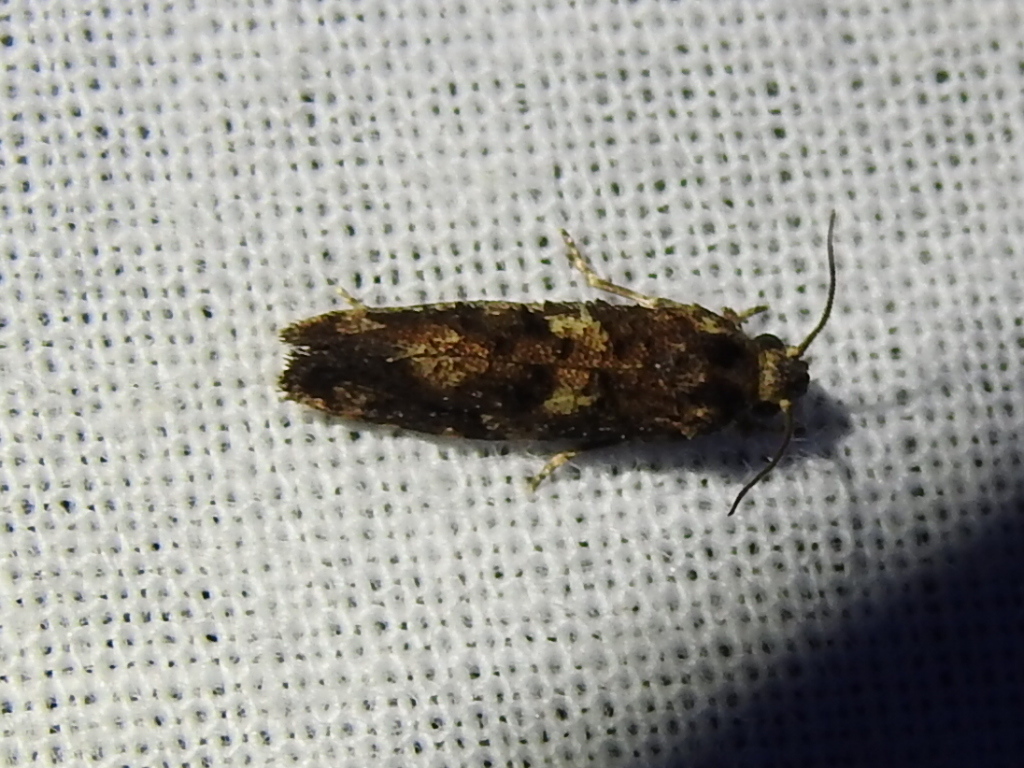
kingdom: Animalia
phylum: Arthropoda
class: Insecta
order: Lepidoptera
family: Tineidae
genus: Acrolophus
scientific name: Acrolophus cressoni
